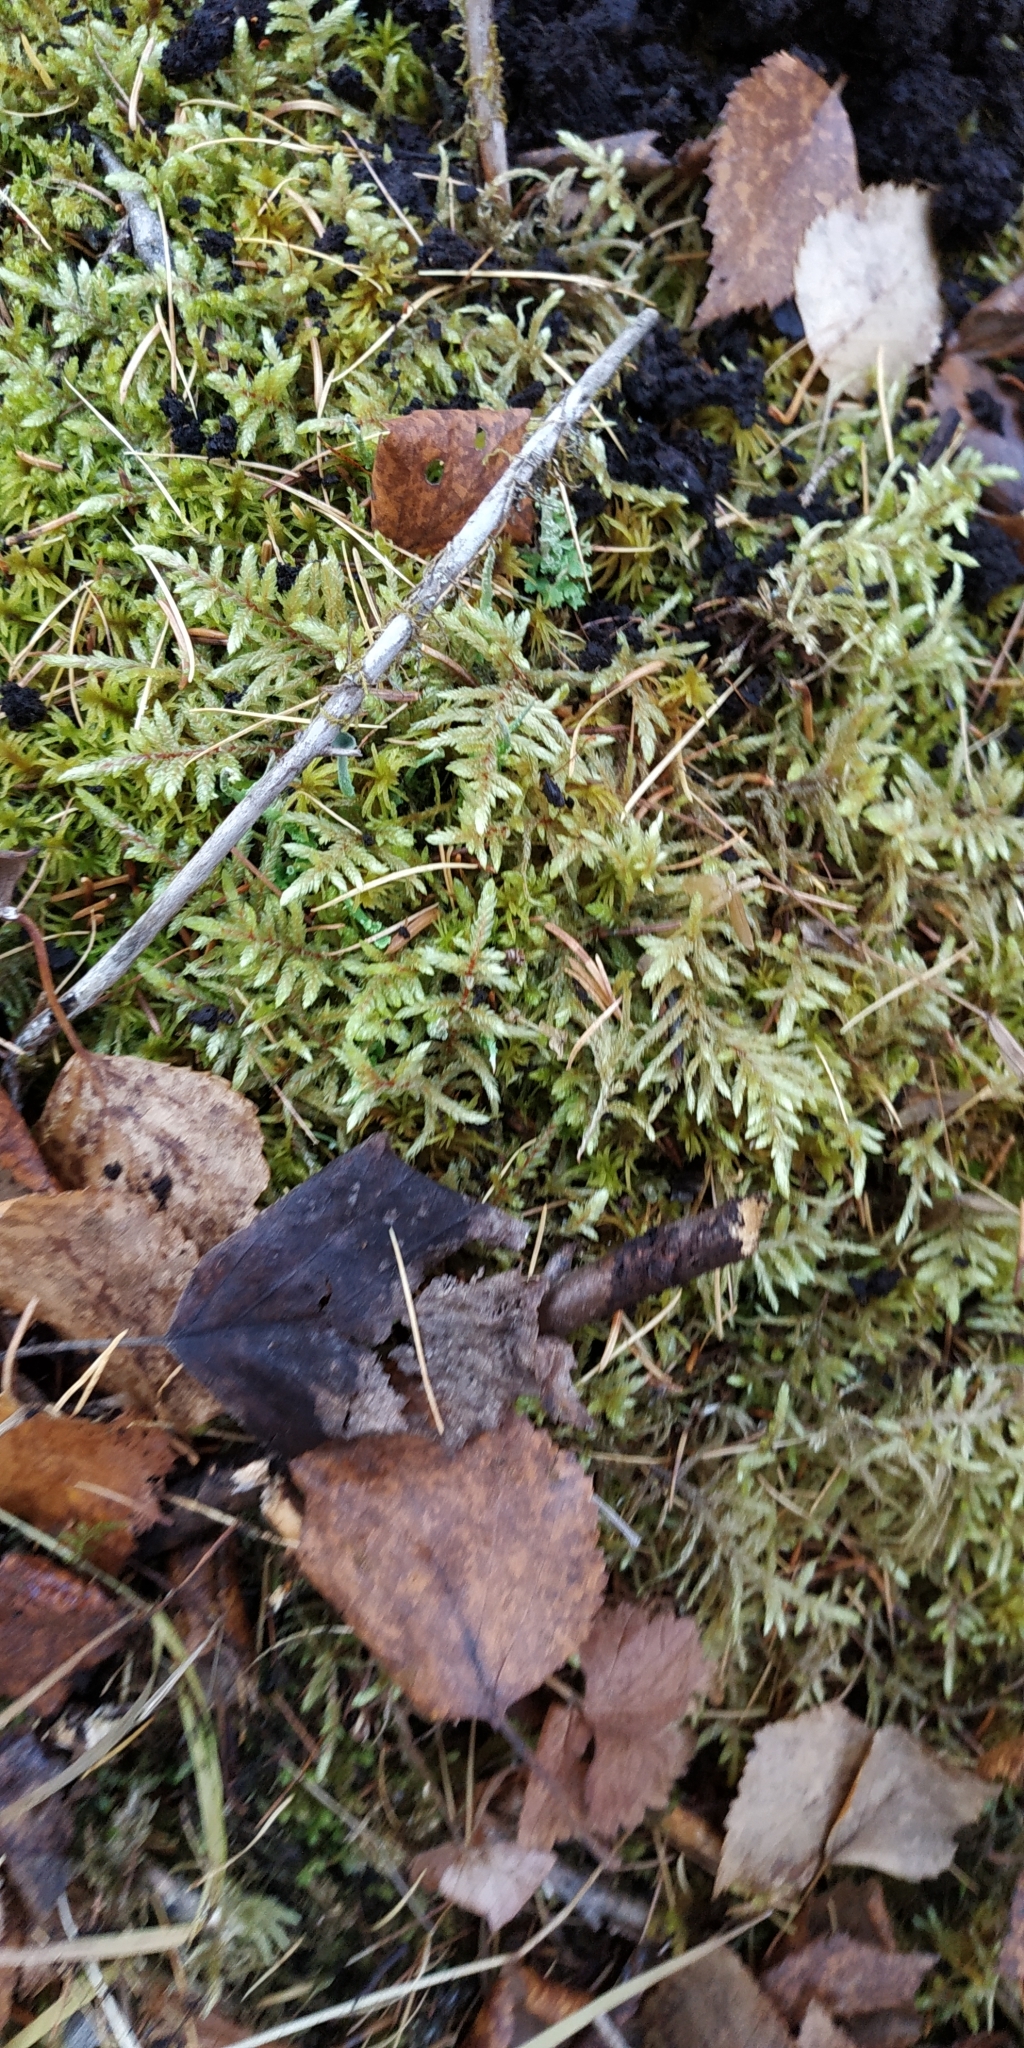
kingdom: Plantae
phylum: Bryophyta
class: Bryopsida
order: Hypnales
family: Hylocomiaceae
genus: Pleurozium
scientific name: Pleurozium schreberi
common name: Red-stemmed feather moss
